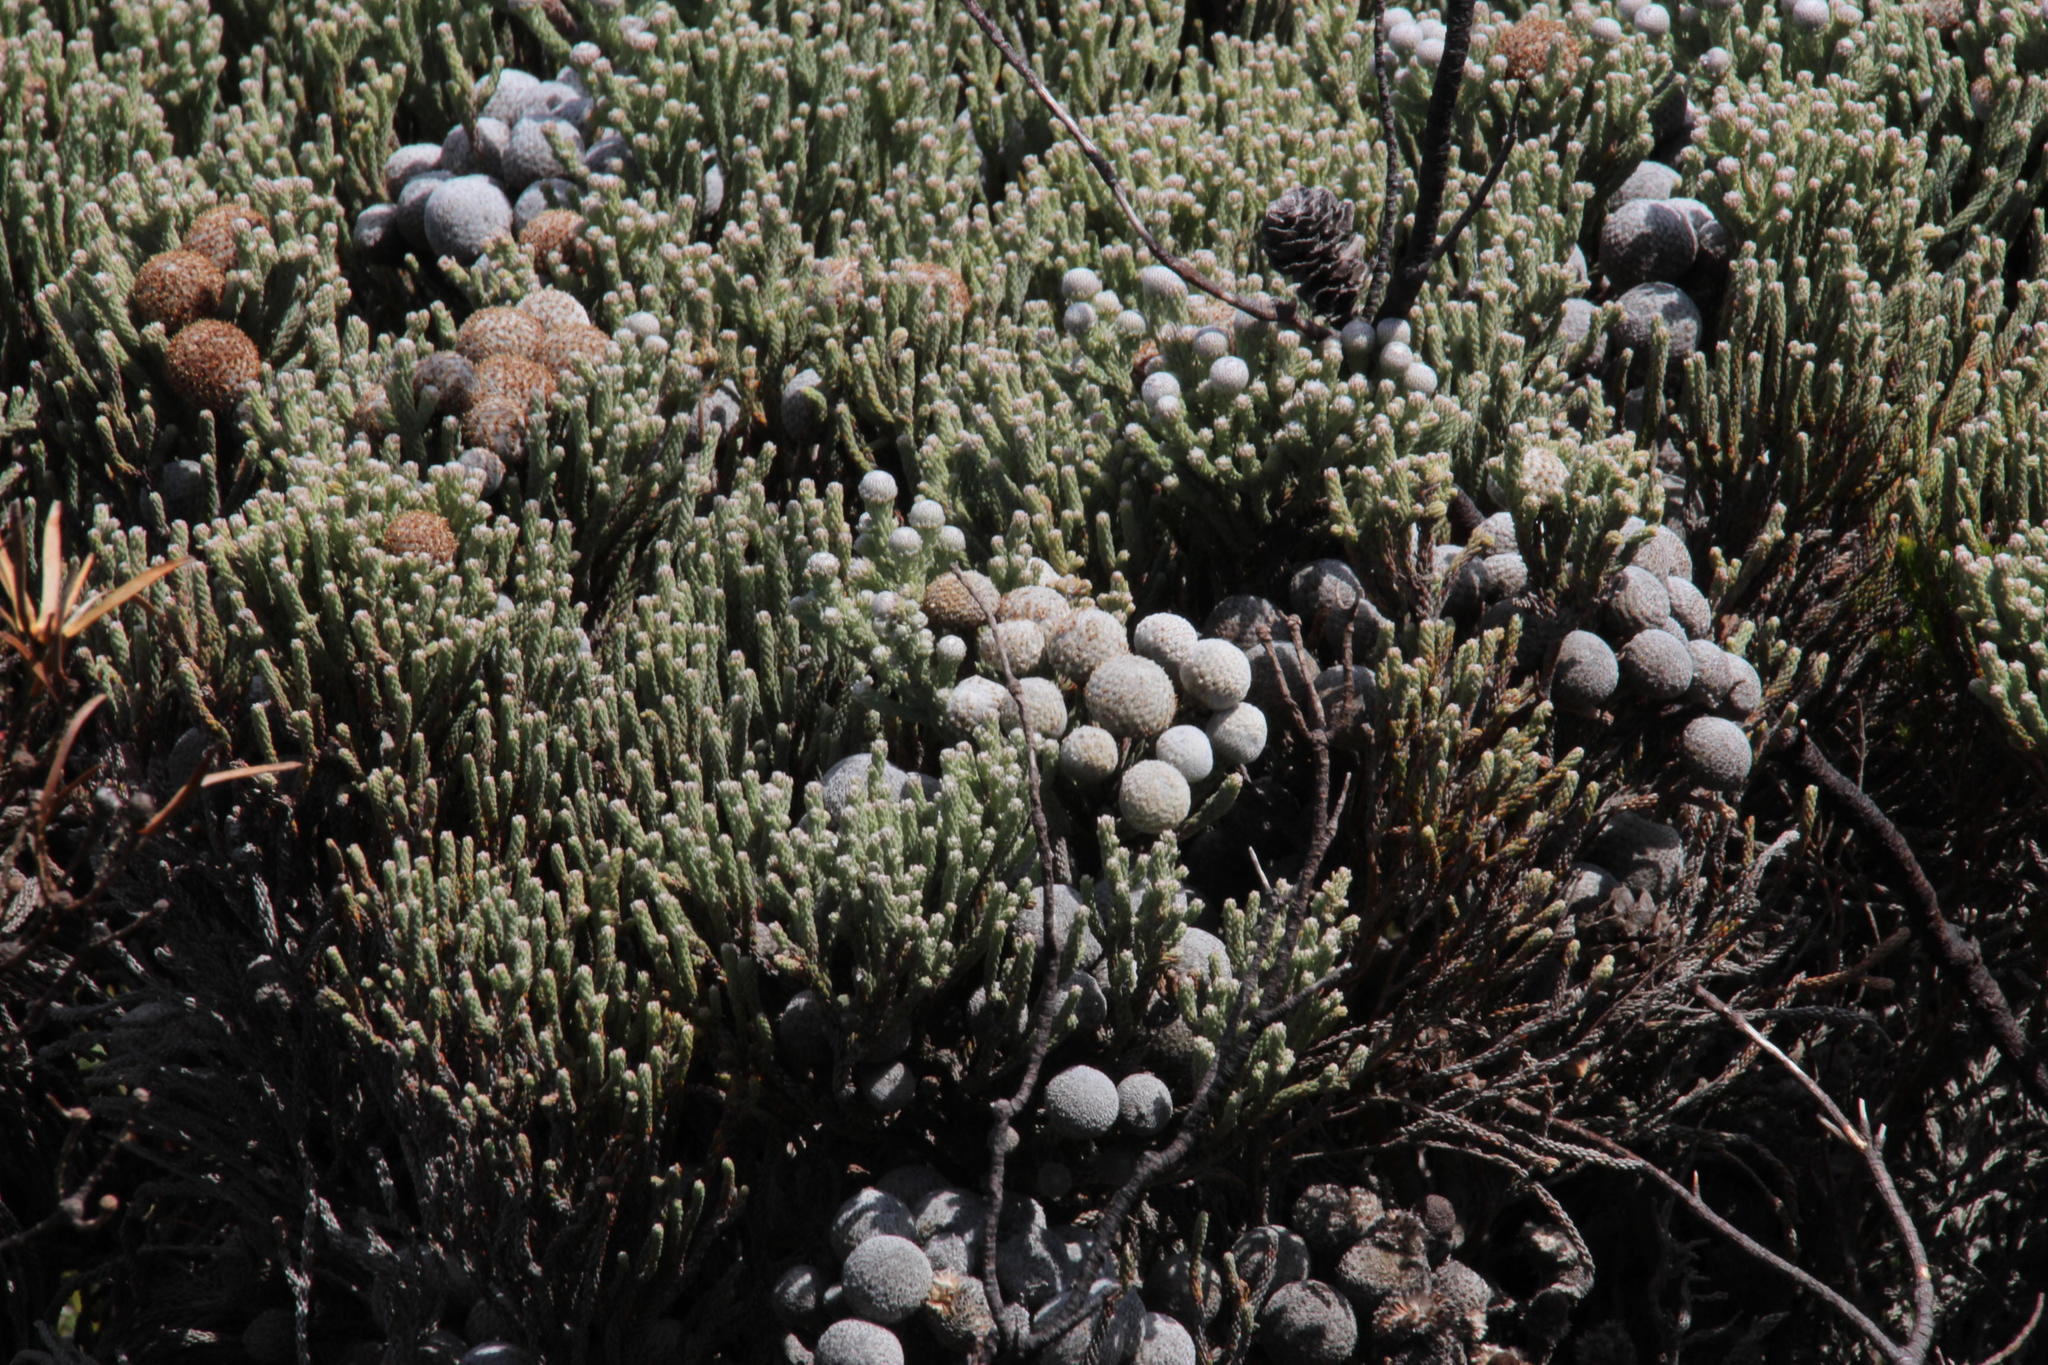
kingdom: Plantae
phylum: Tracheophyta
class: Magnoliopsida
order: Bruniales
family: Bruniaceae
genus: Brunia
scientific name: Brunia laevis
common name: Silver brunia
